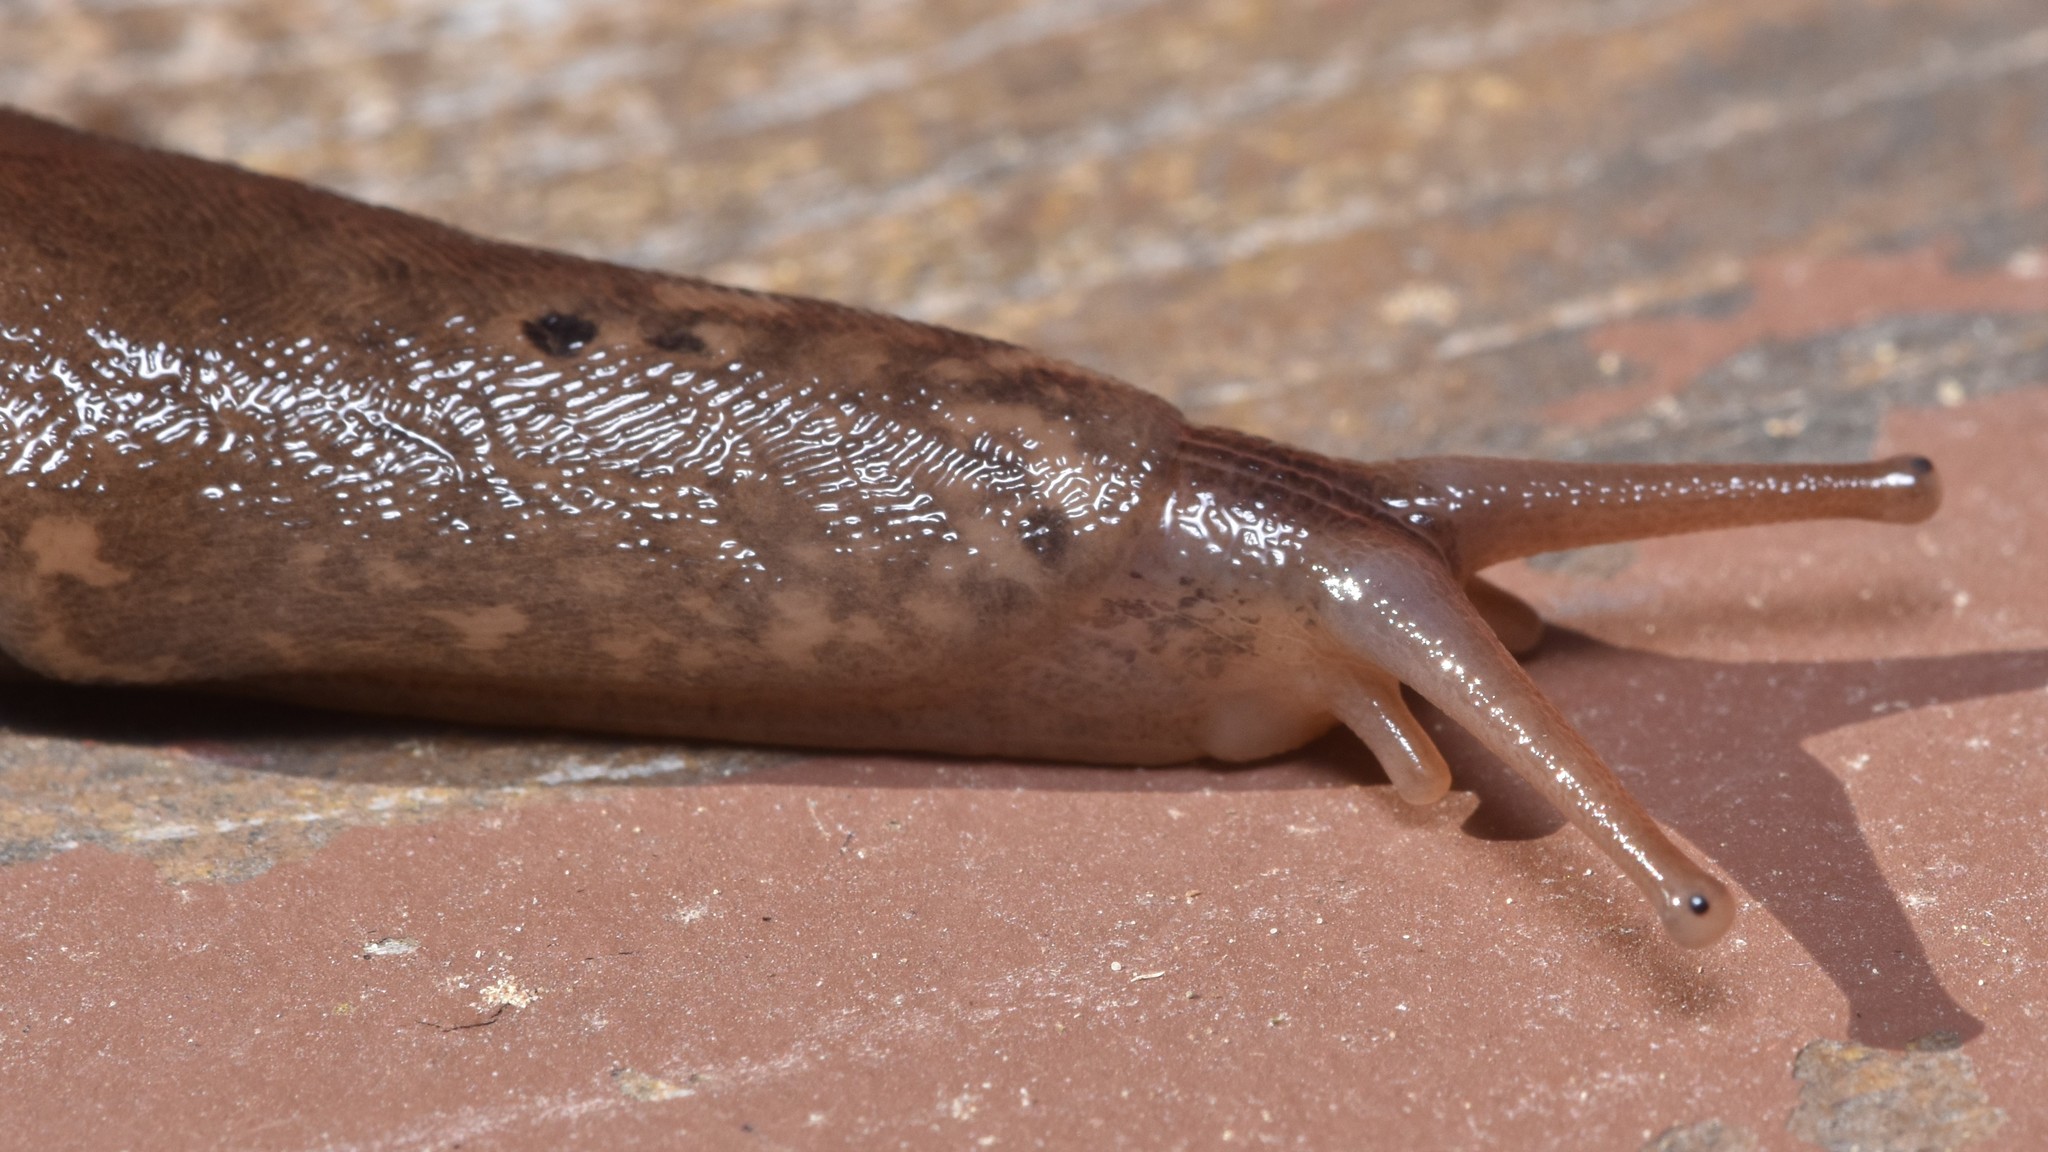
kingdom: Animalia
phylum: Mollusca
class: Gastropoda
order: Stylommatophora
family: Limacidae
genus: Limax
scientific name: Limax maximus
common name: Great grey slug
